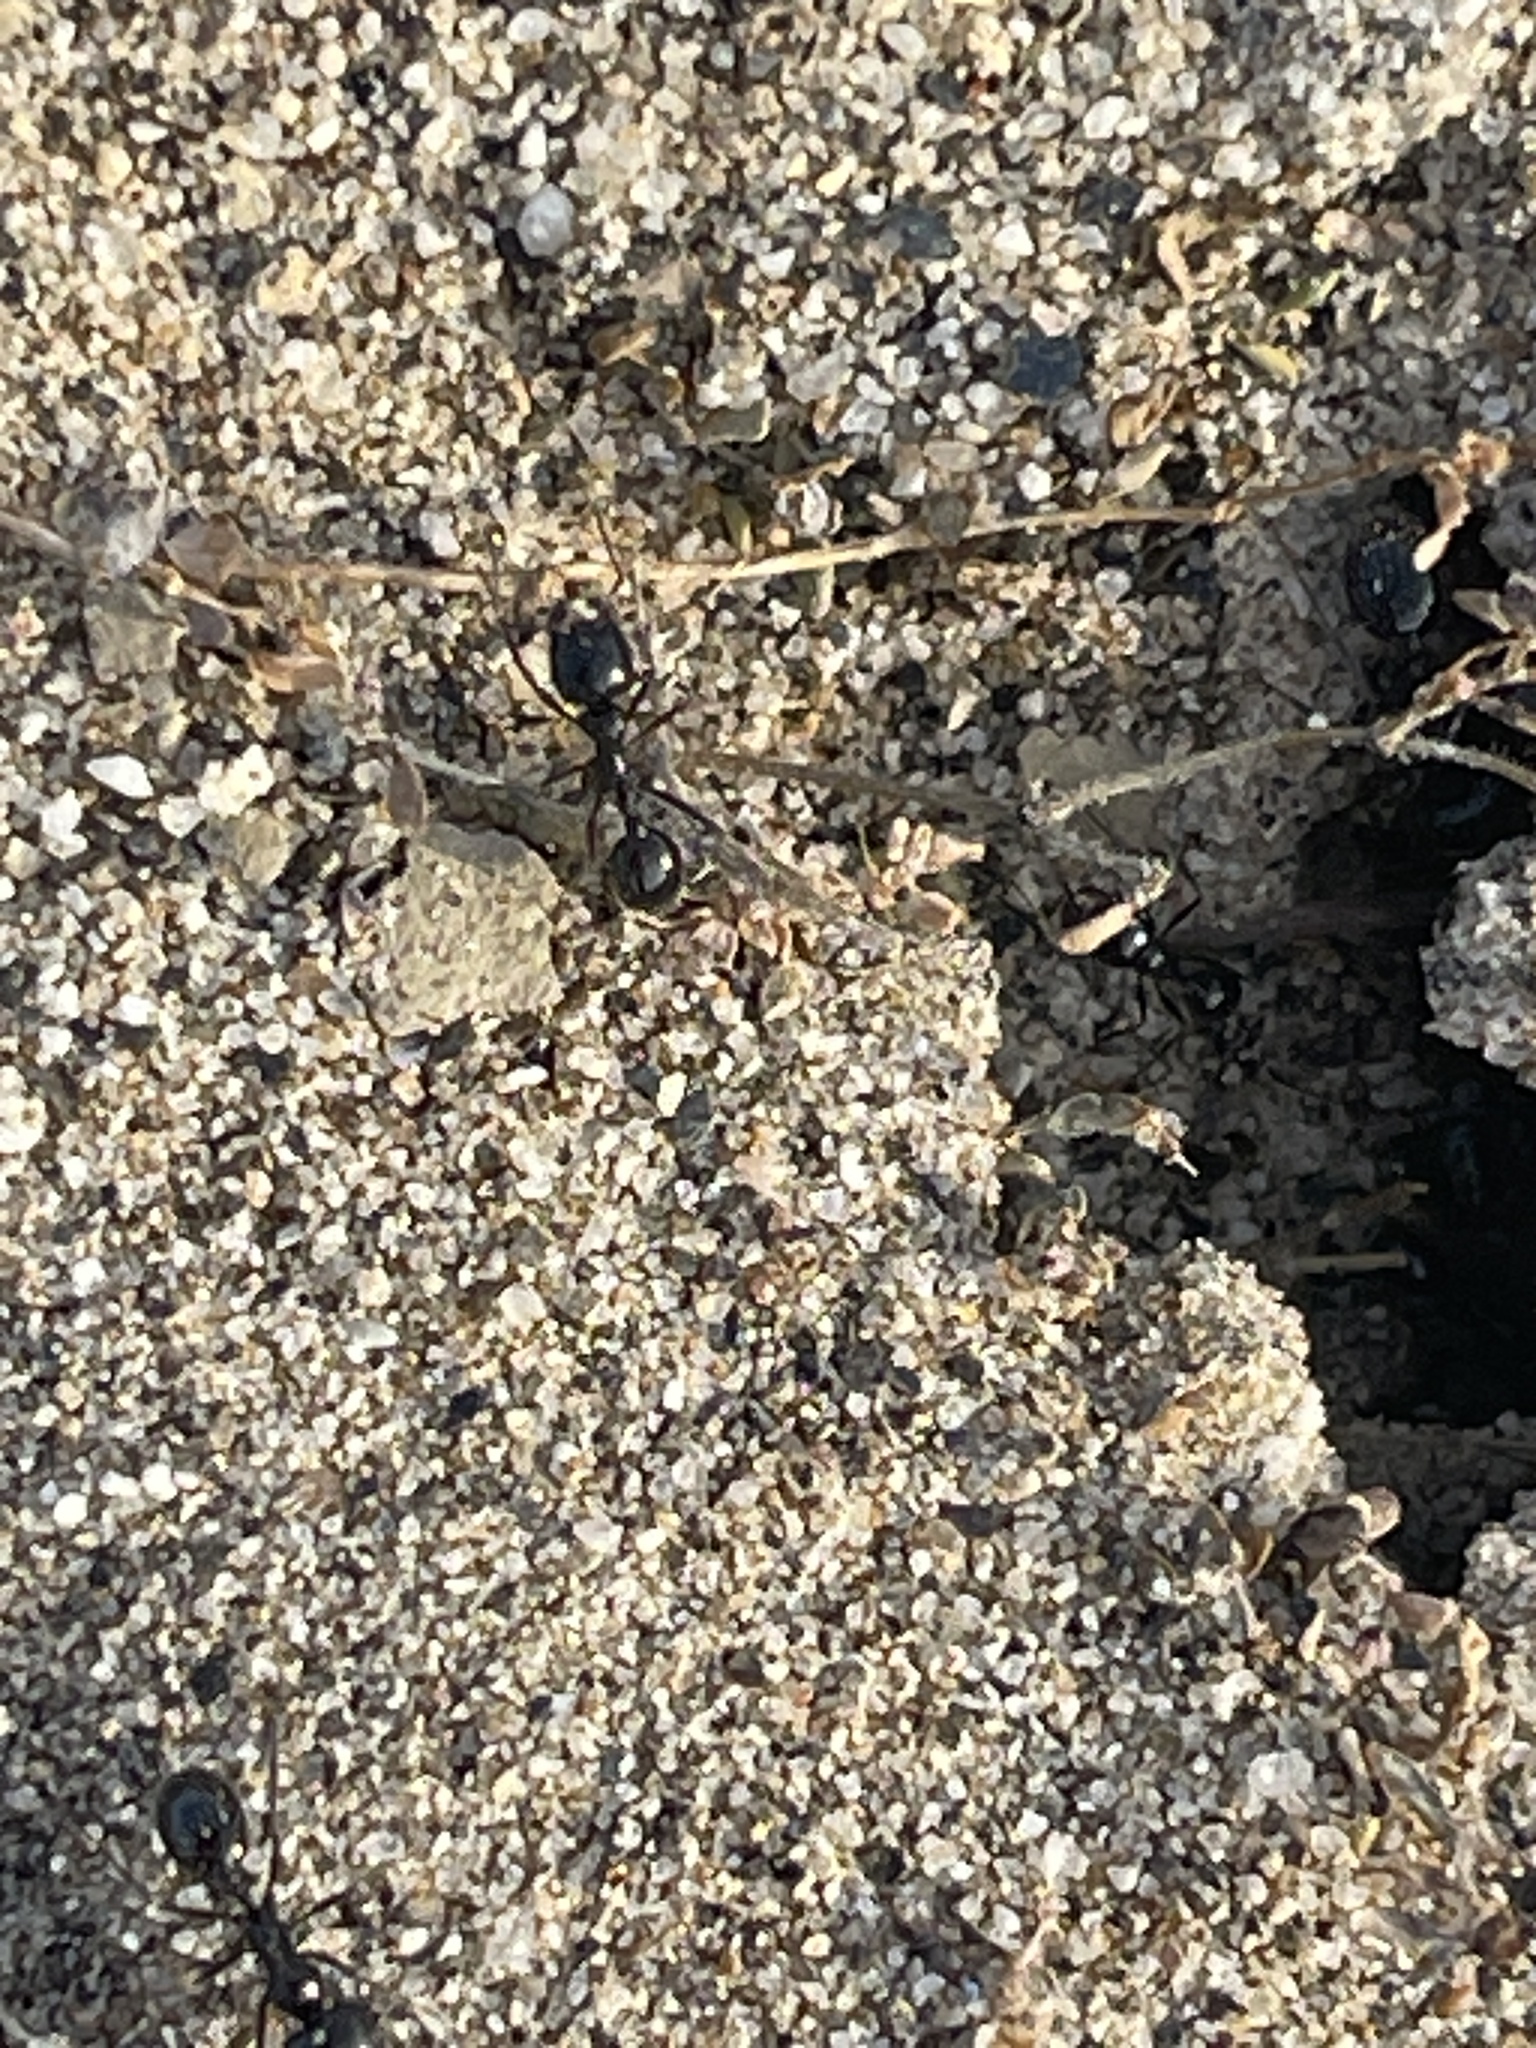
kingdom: Animalia
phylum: Arthropoda
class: Insecta
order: Hymenoptera
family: Formicidae
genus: Messor
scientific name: Messor pergandei
